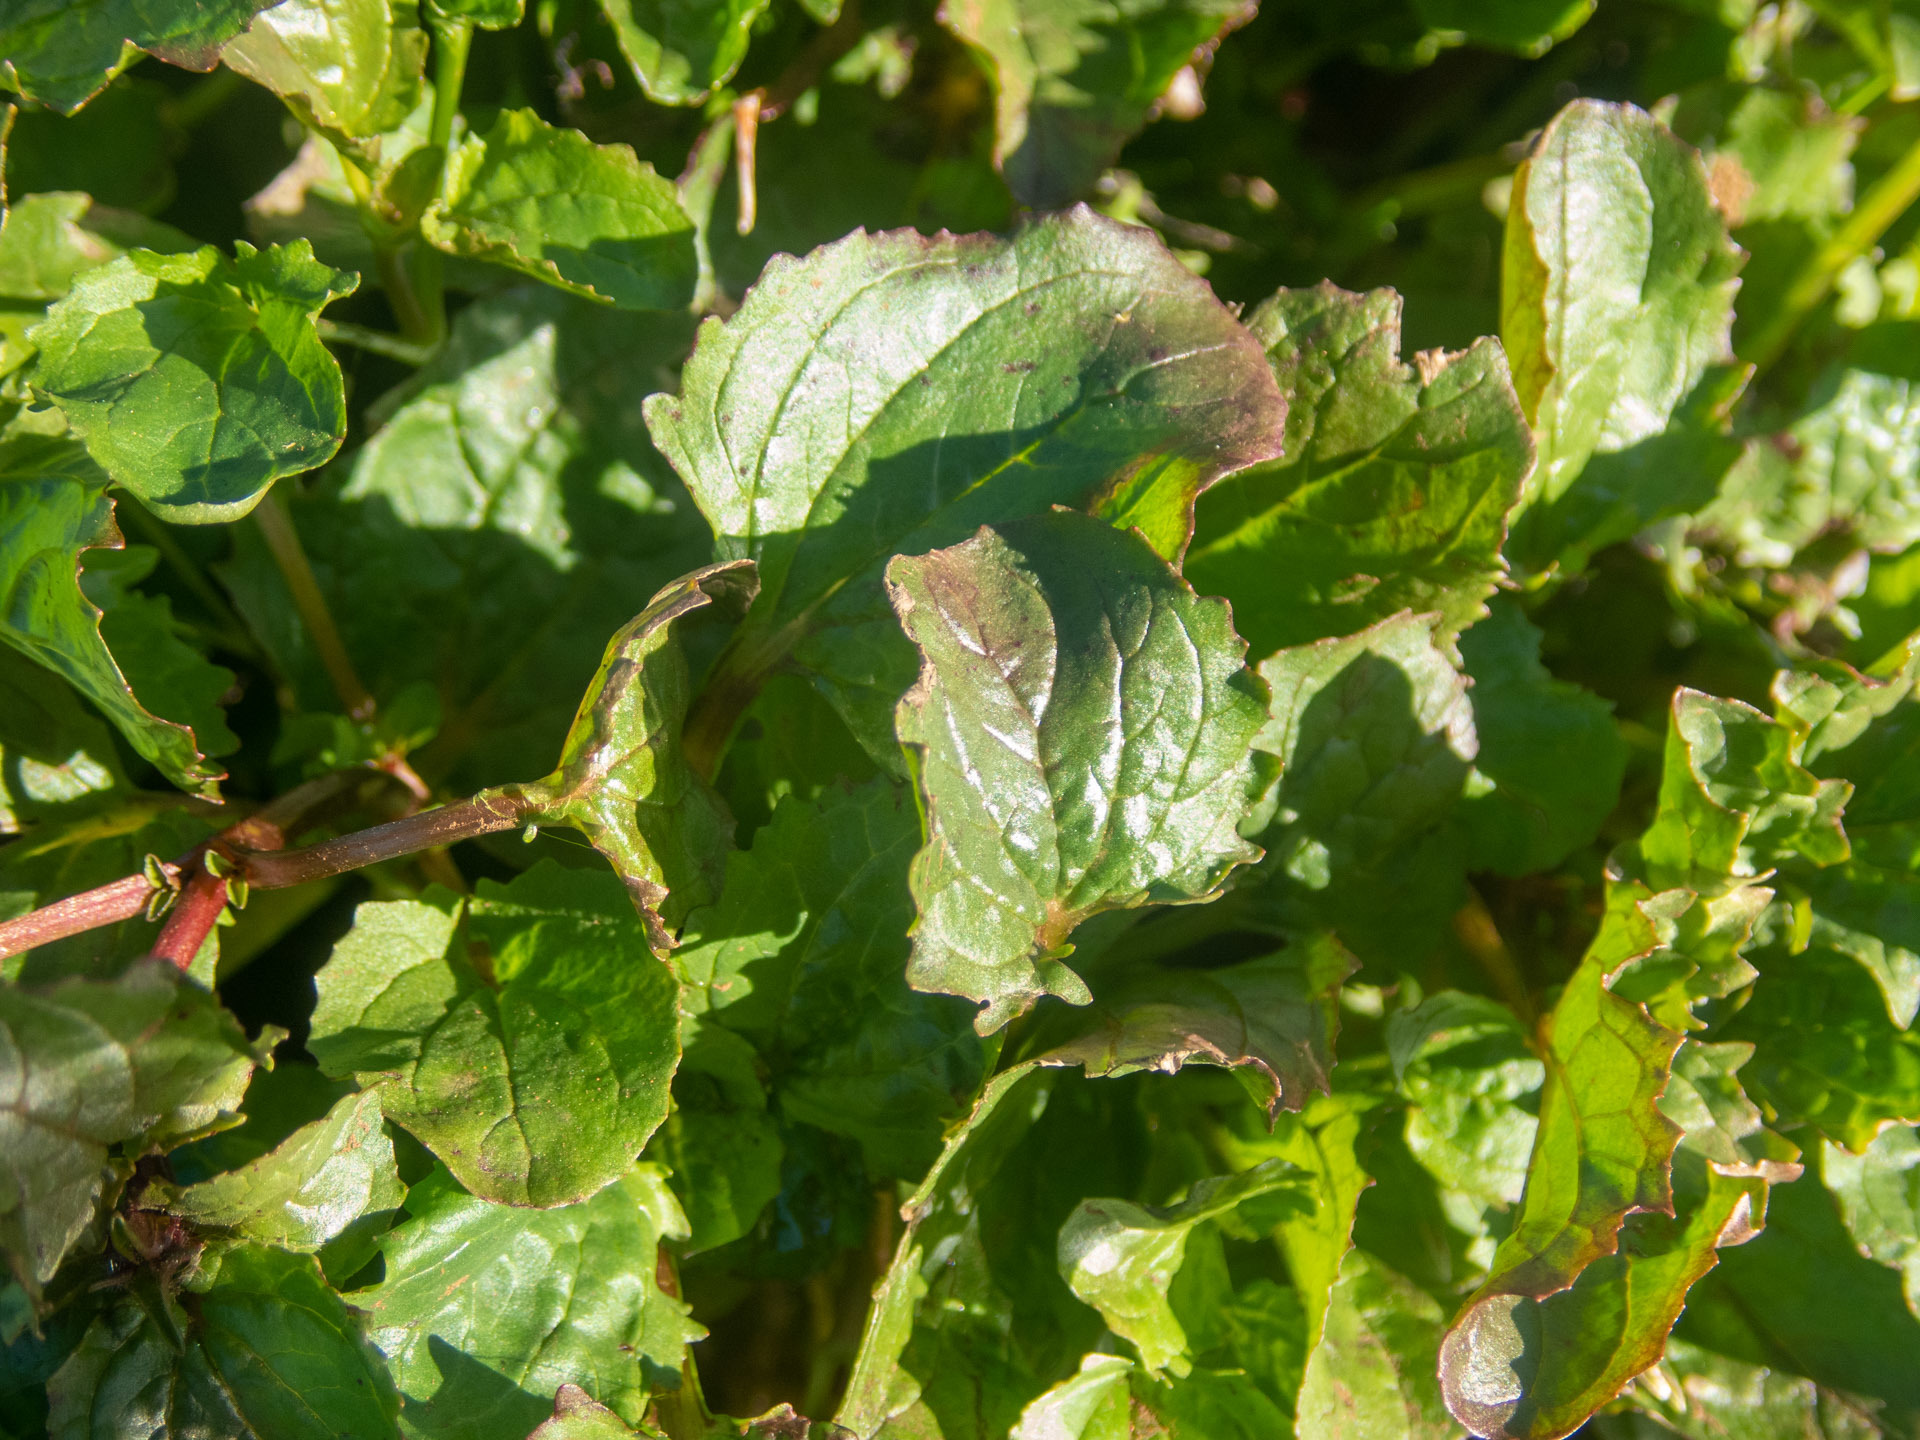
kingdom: Plantae
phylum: Tracheophyta
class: Magnoliopsida
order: Lamiales
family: Phrymaceae
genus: Erythranthe
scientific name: Erythranthe guttata
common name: Monkeyflower
